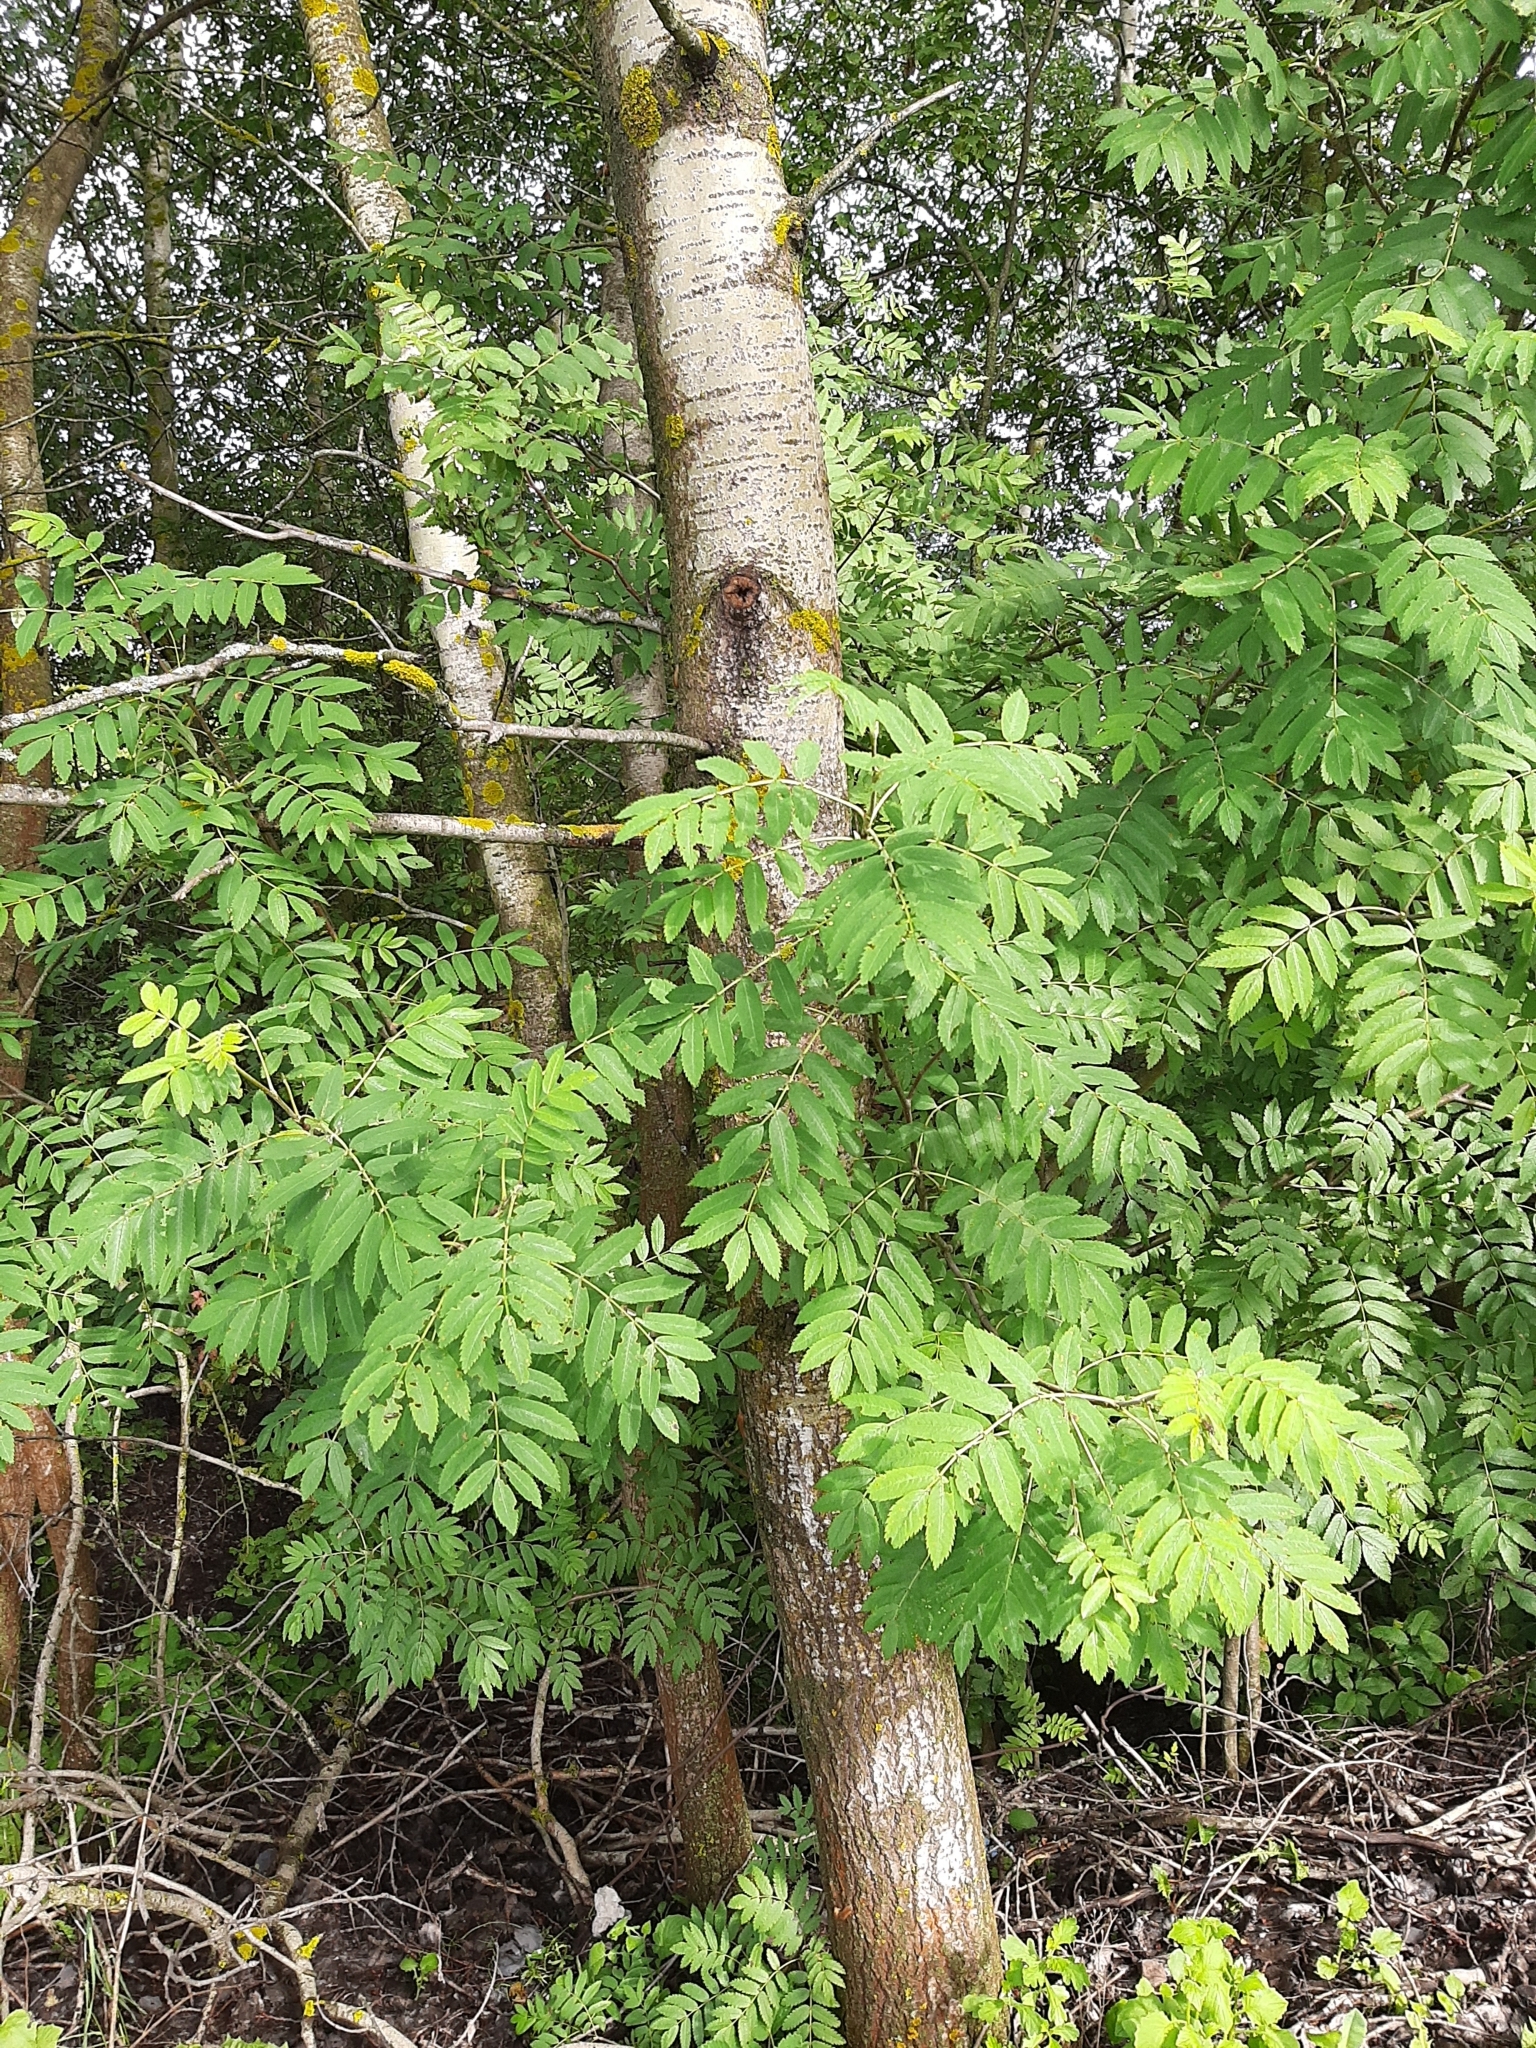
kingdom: Plantae
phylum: Tracheophyta
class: Magnoliopsida
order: Rosales
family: Rosaceae
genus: Sorbus
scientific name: Sorbus aucuparia
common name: Rowan
